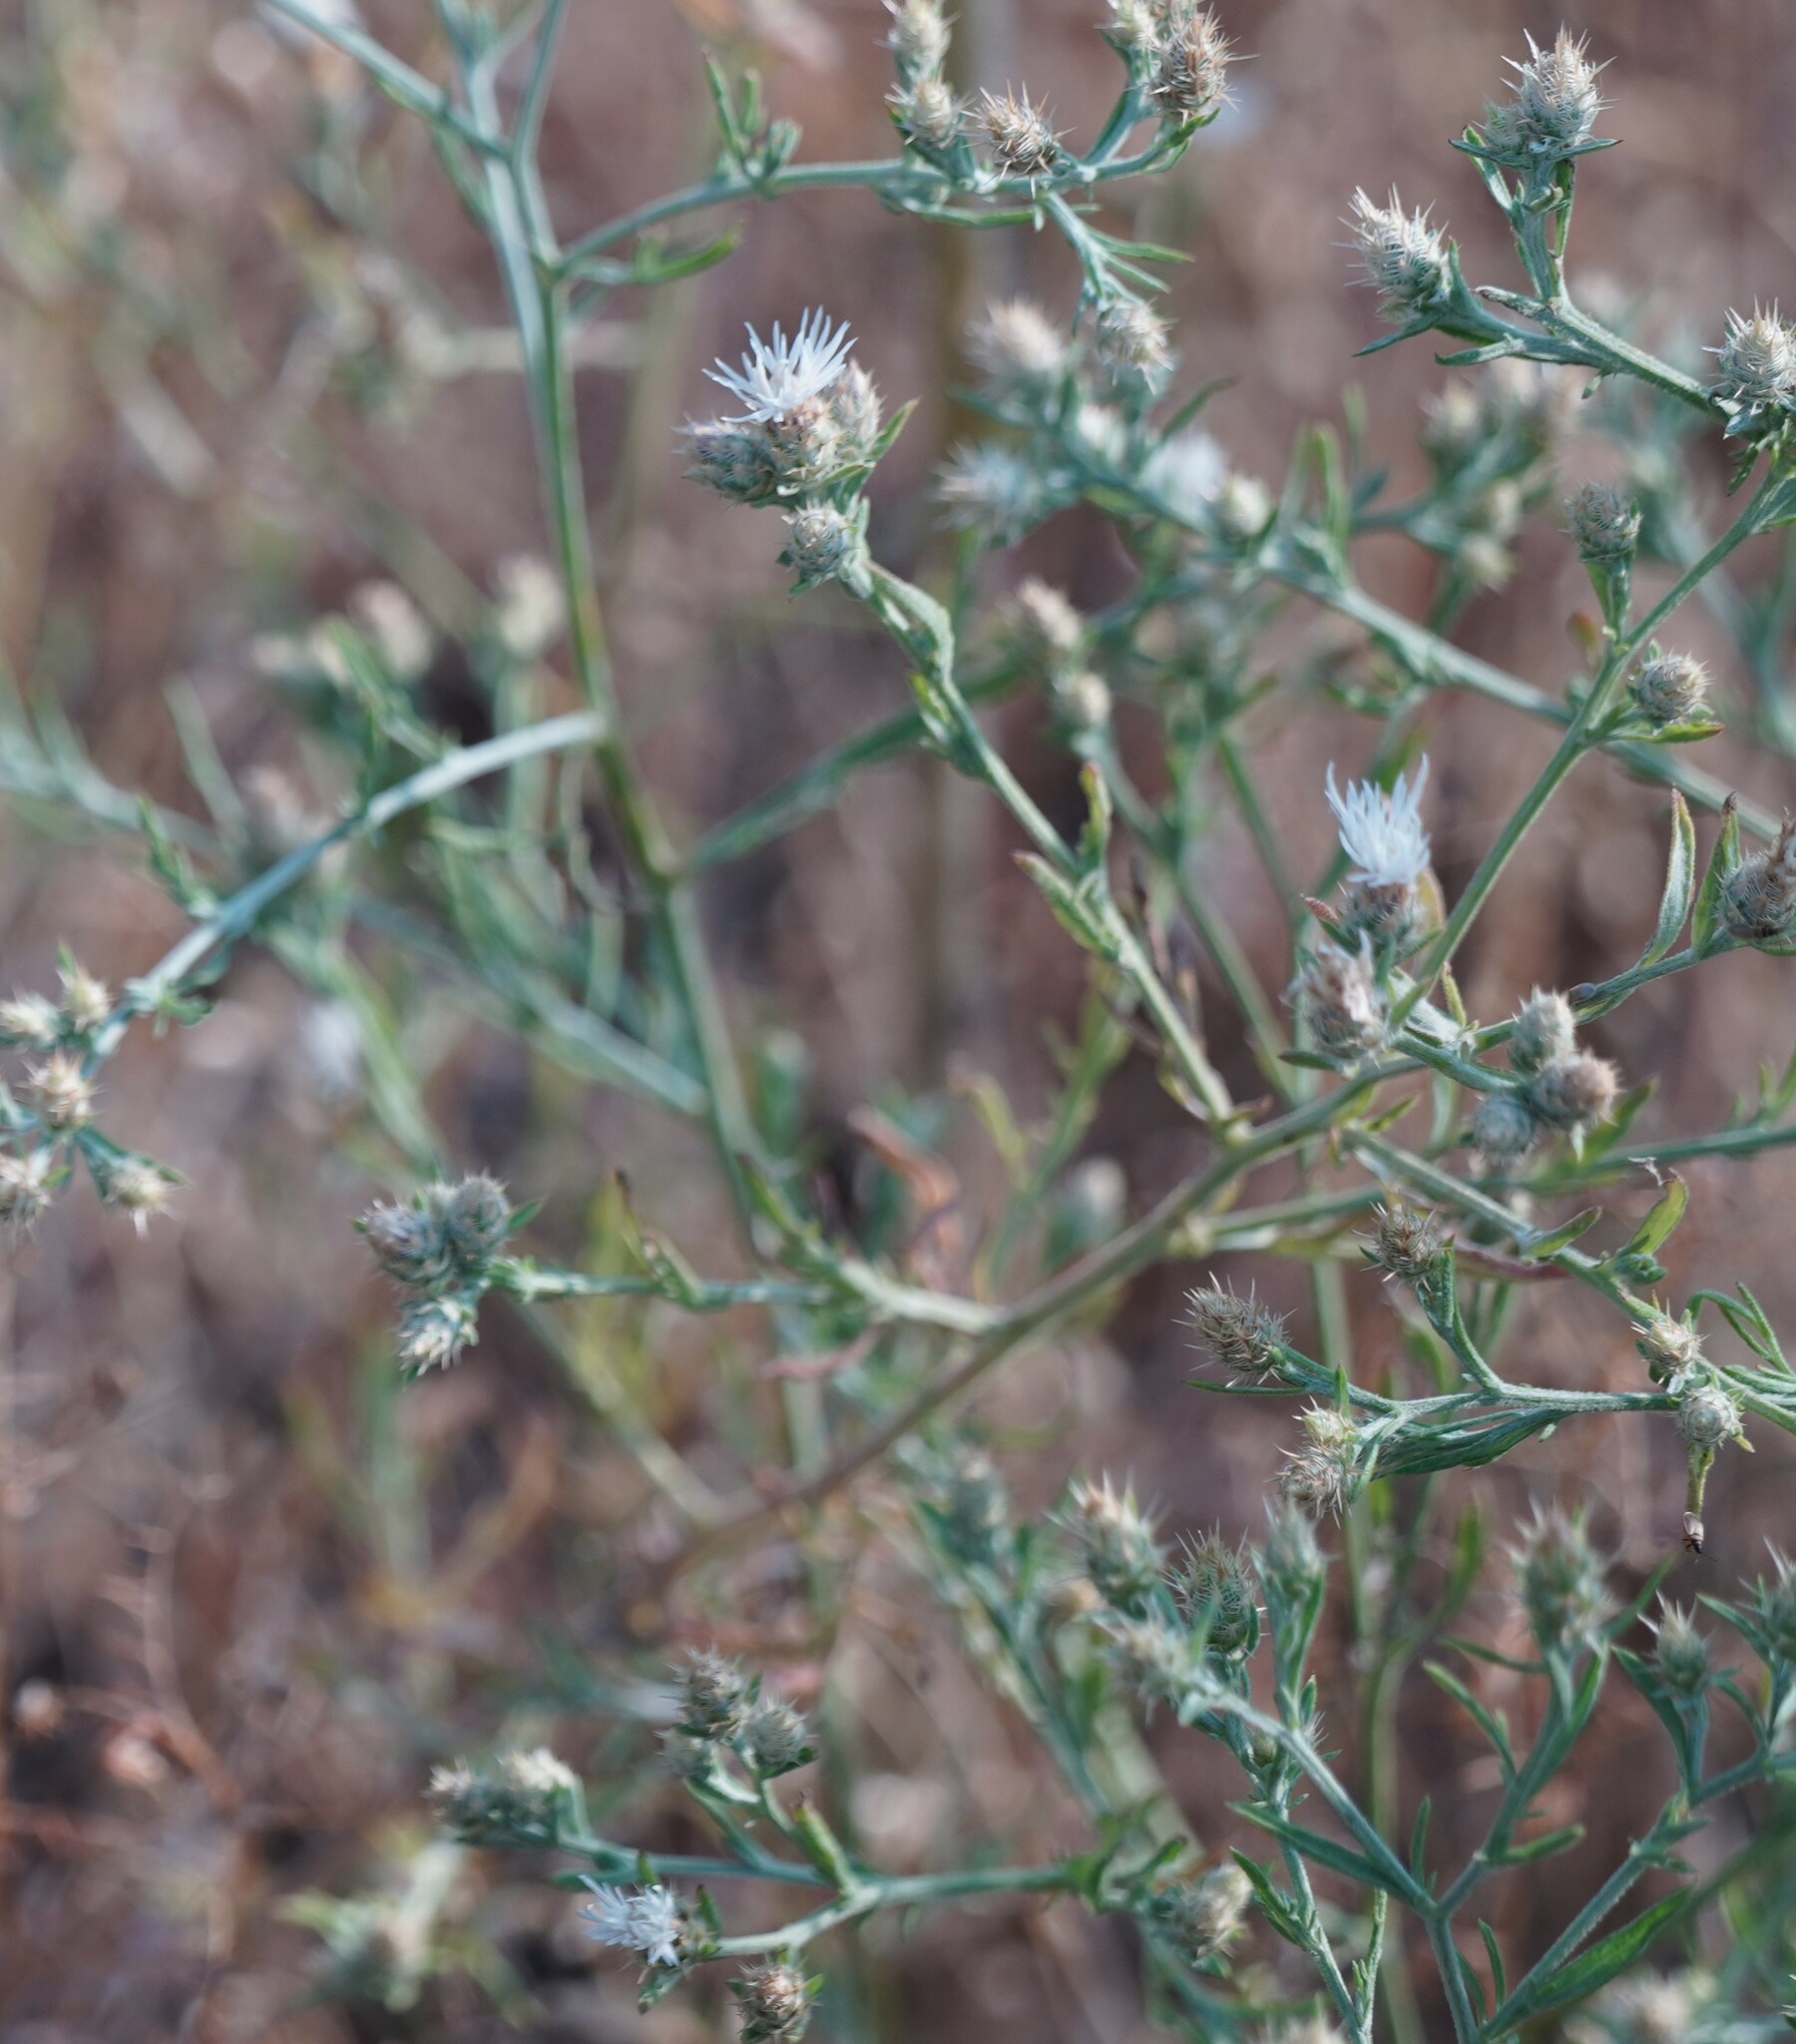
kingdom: Plantae
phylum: Tracheophyta
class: Magnoliopsida
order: Asterales
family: Asteraceae
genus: Centaurea
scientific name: Centaurea diffusa
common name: Diffuse knapweed
